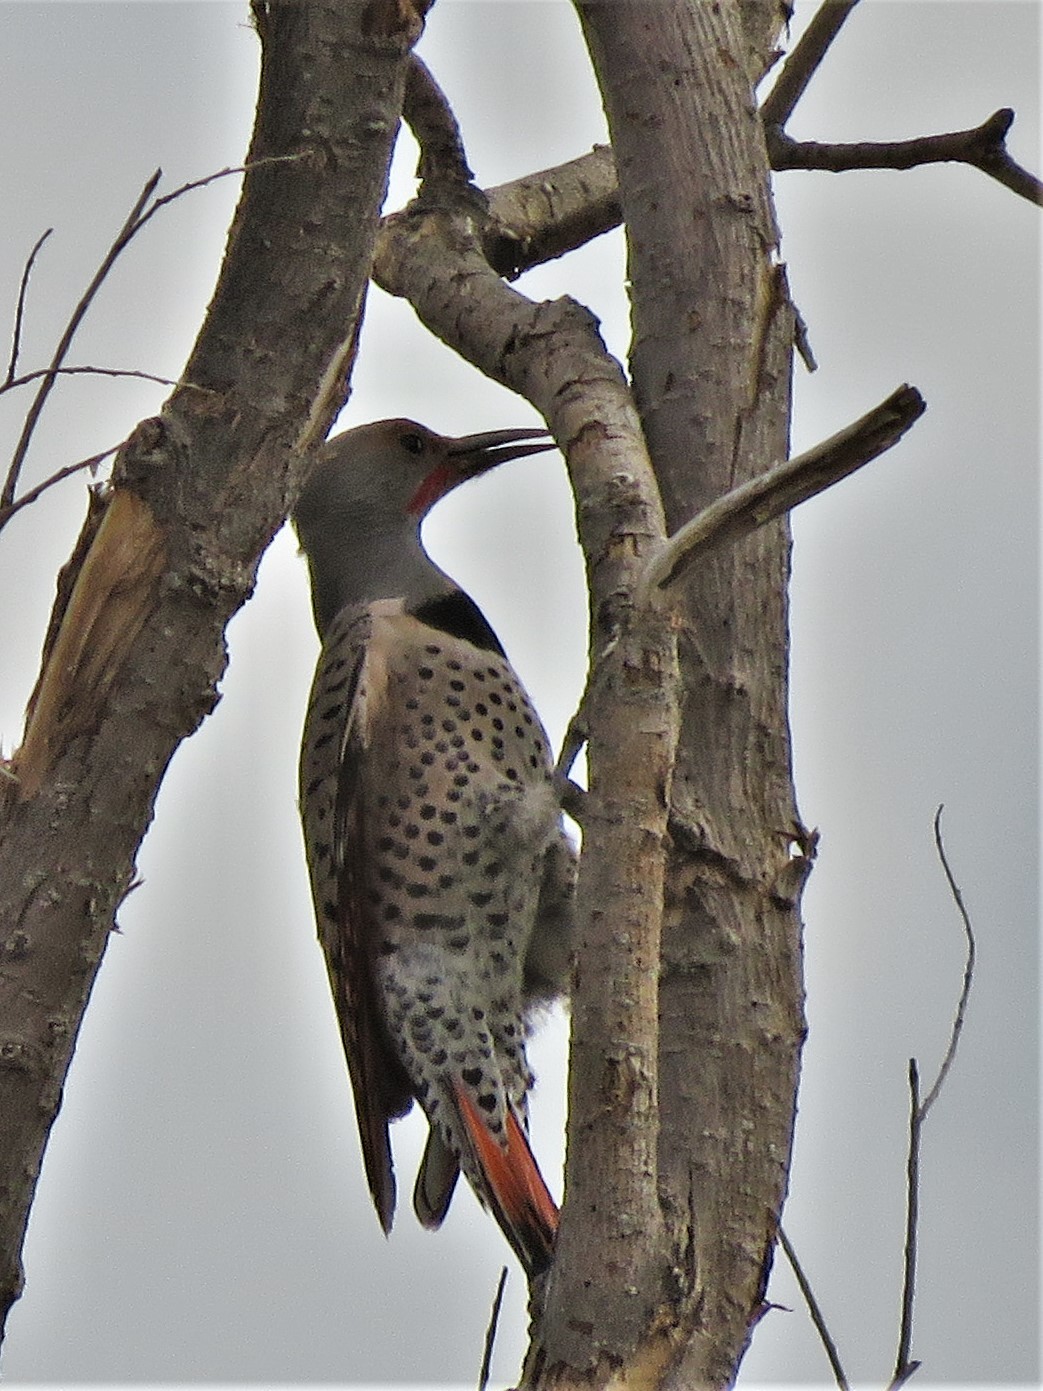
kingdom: Animalia
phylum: Chordata
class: Aves
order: Piciformes
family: Picidae
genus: Colaptes
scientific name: Colaptes auratus
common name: Northern flicker
